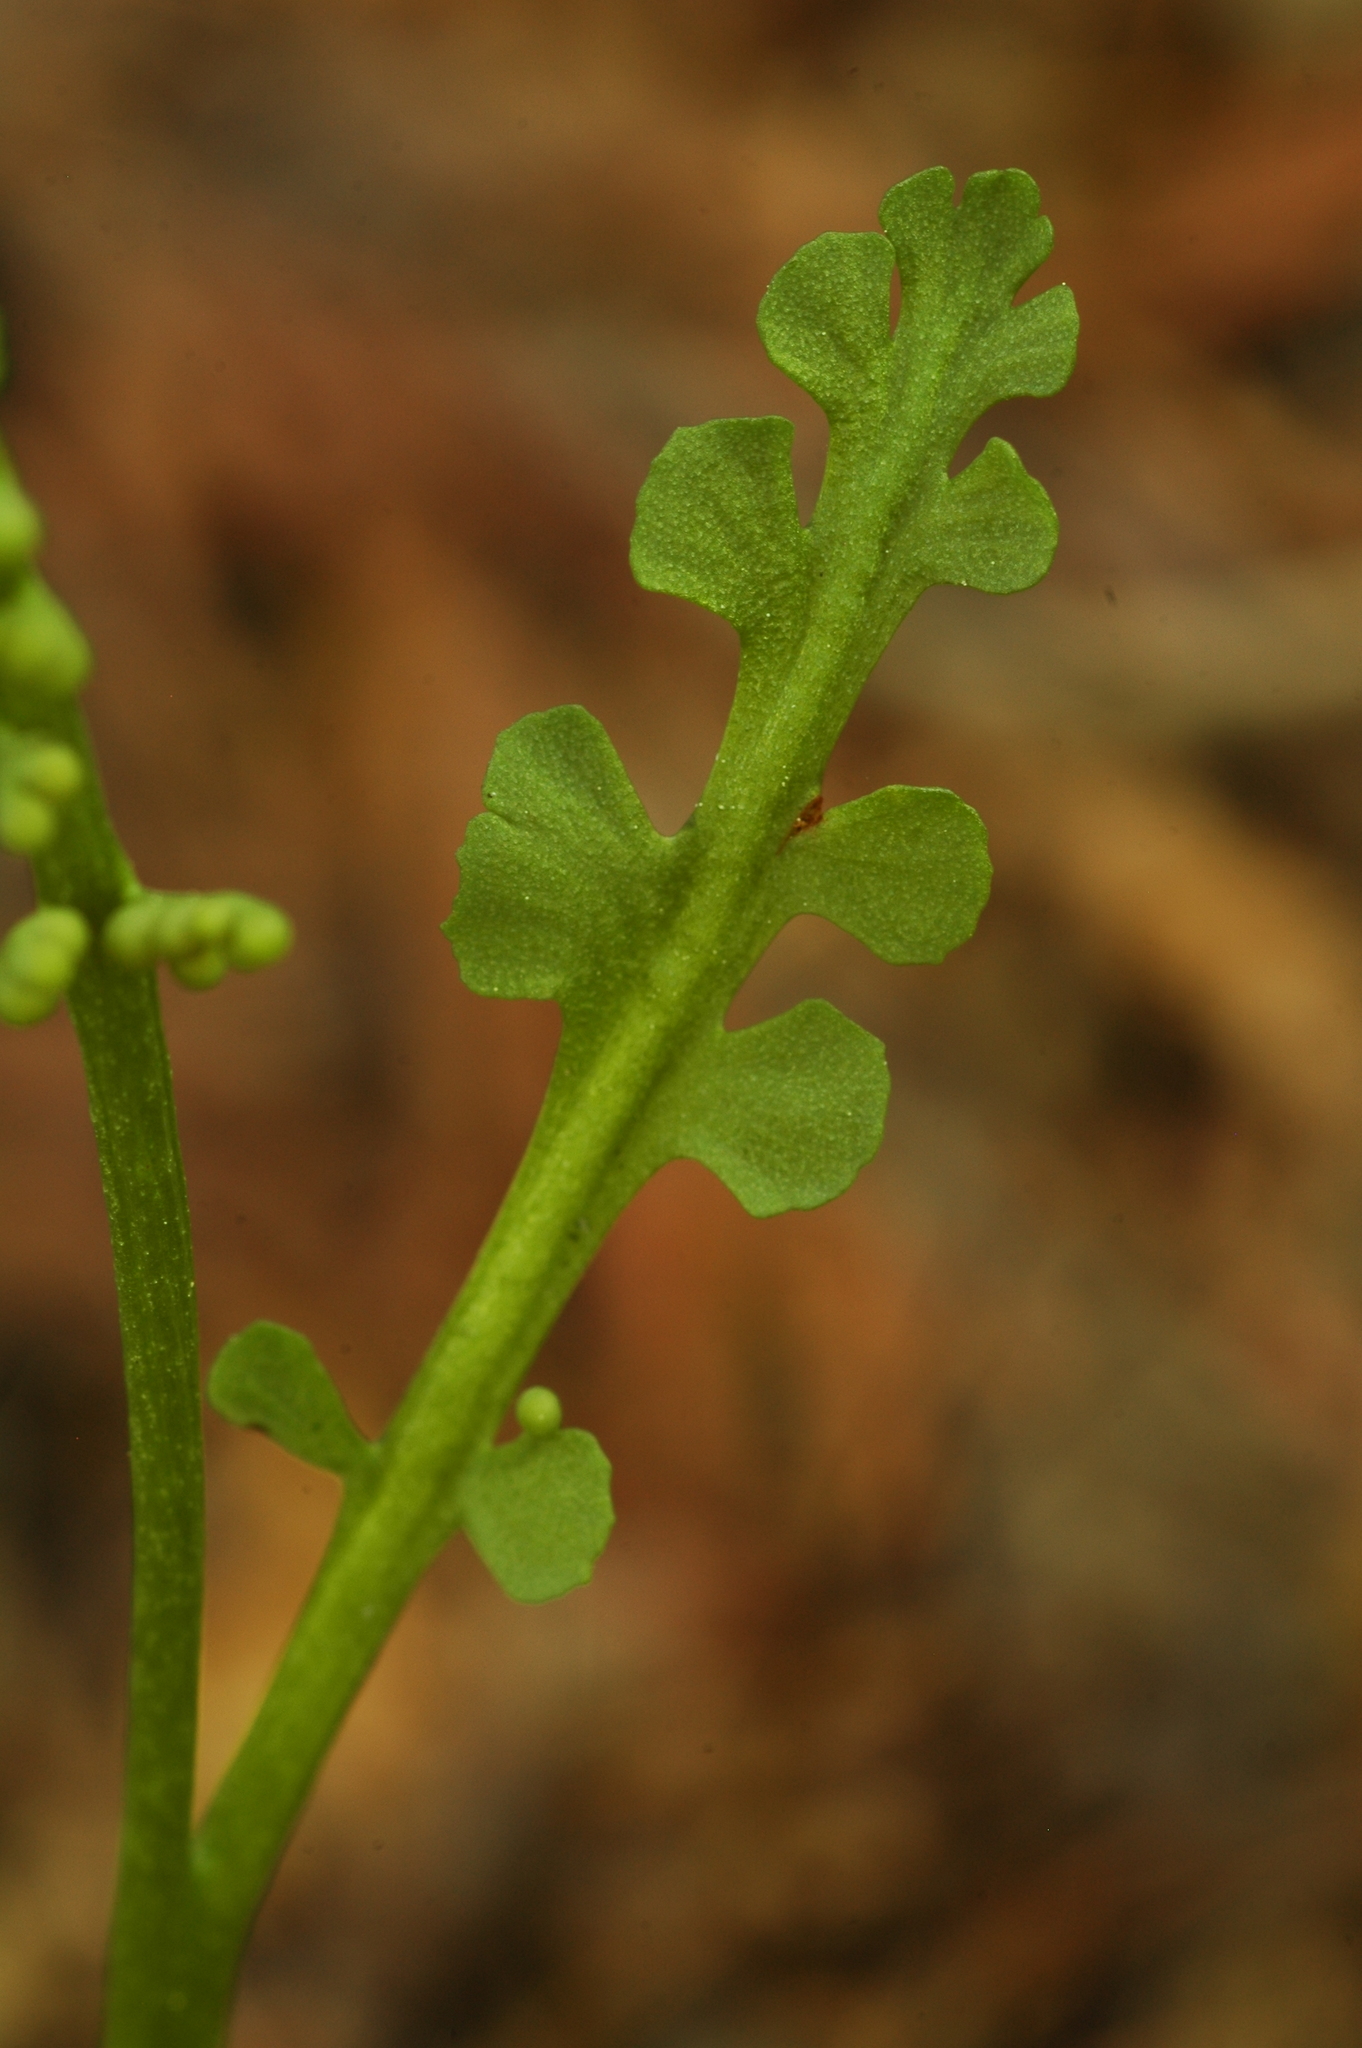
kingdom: Plantae
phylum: Tracheophyta
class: Polypodiopsida
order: Ophioglossales
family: Ophioglossaceae
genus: Botrychium
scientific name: Botrychium minganense
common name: Mingan grapefern
